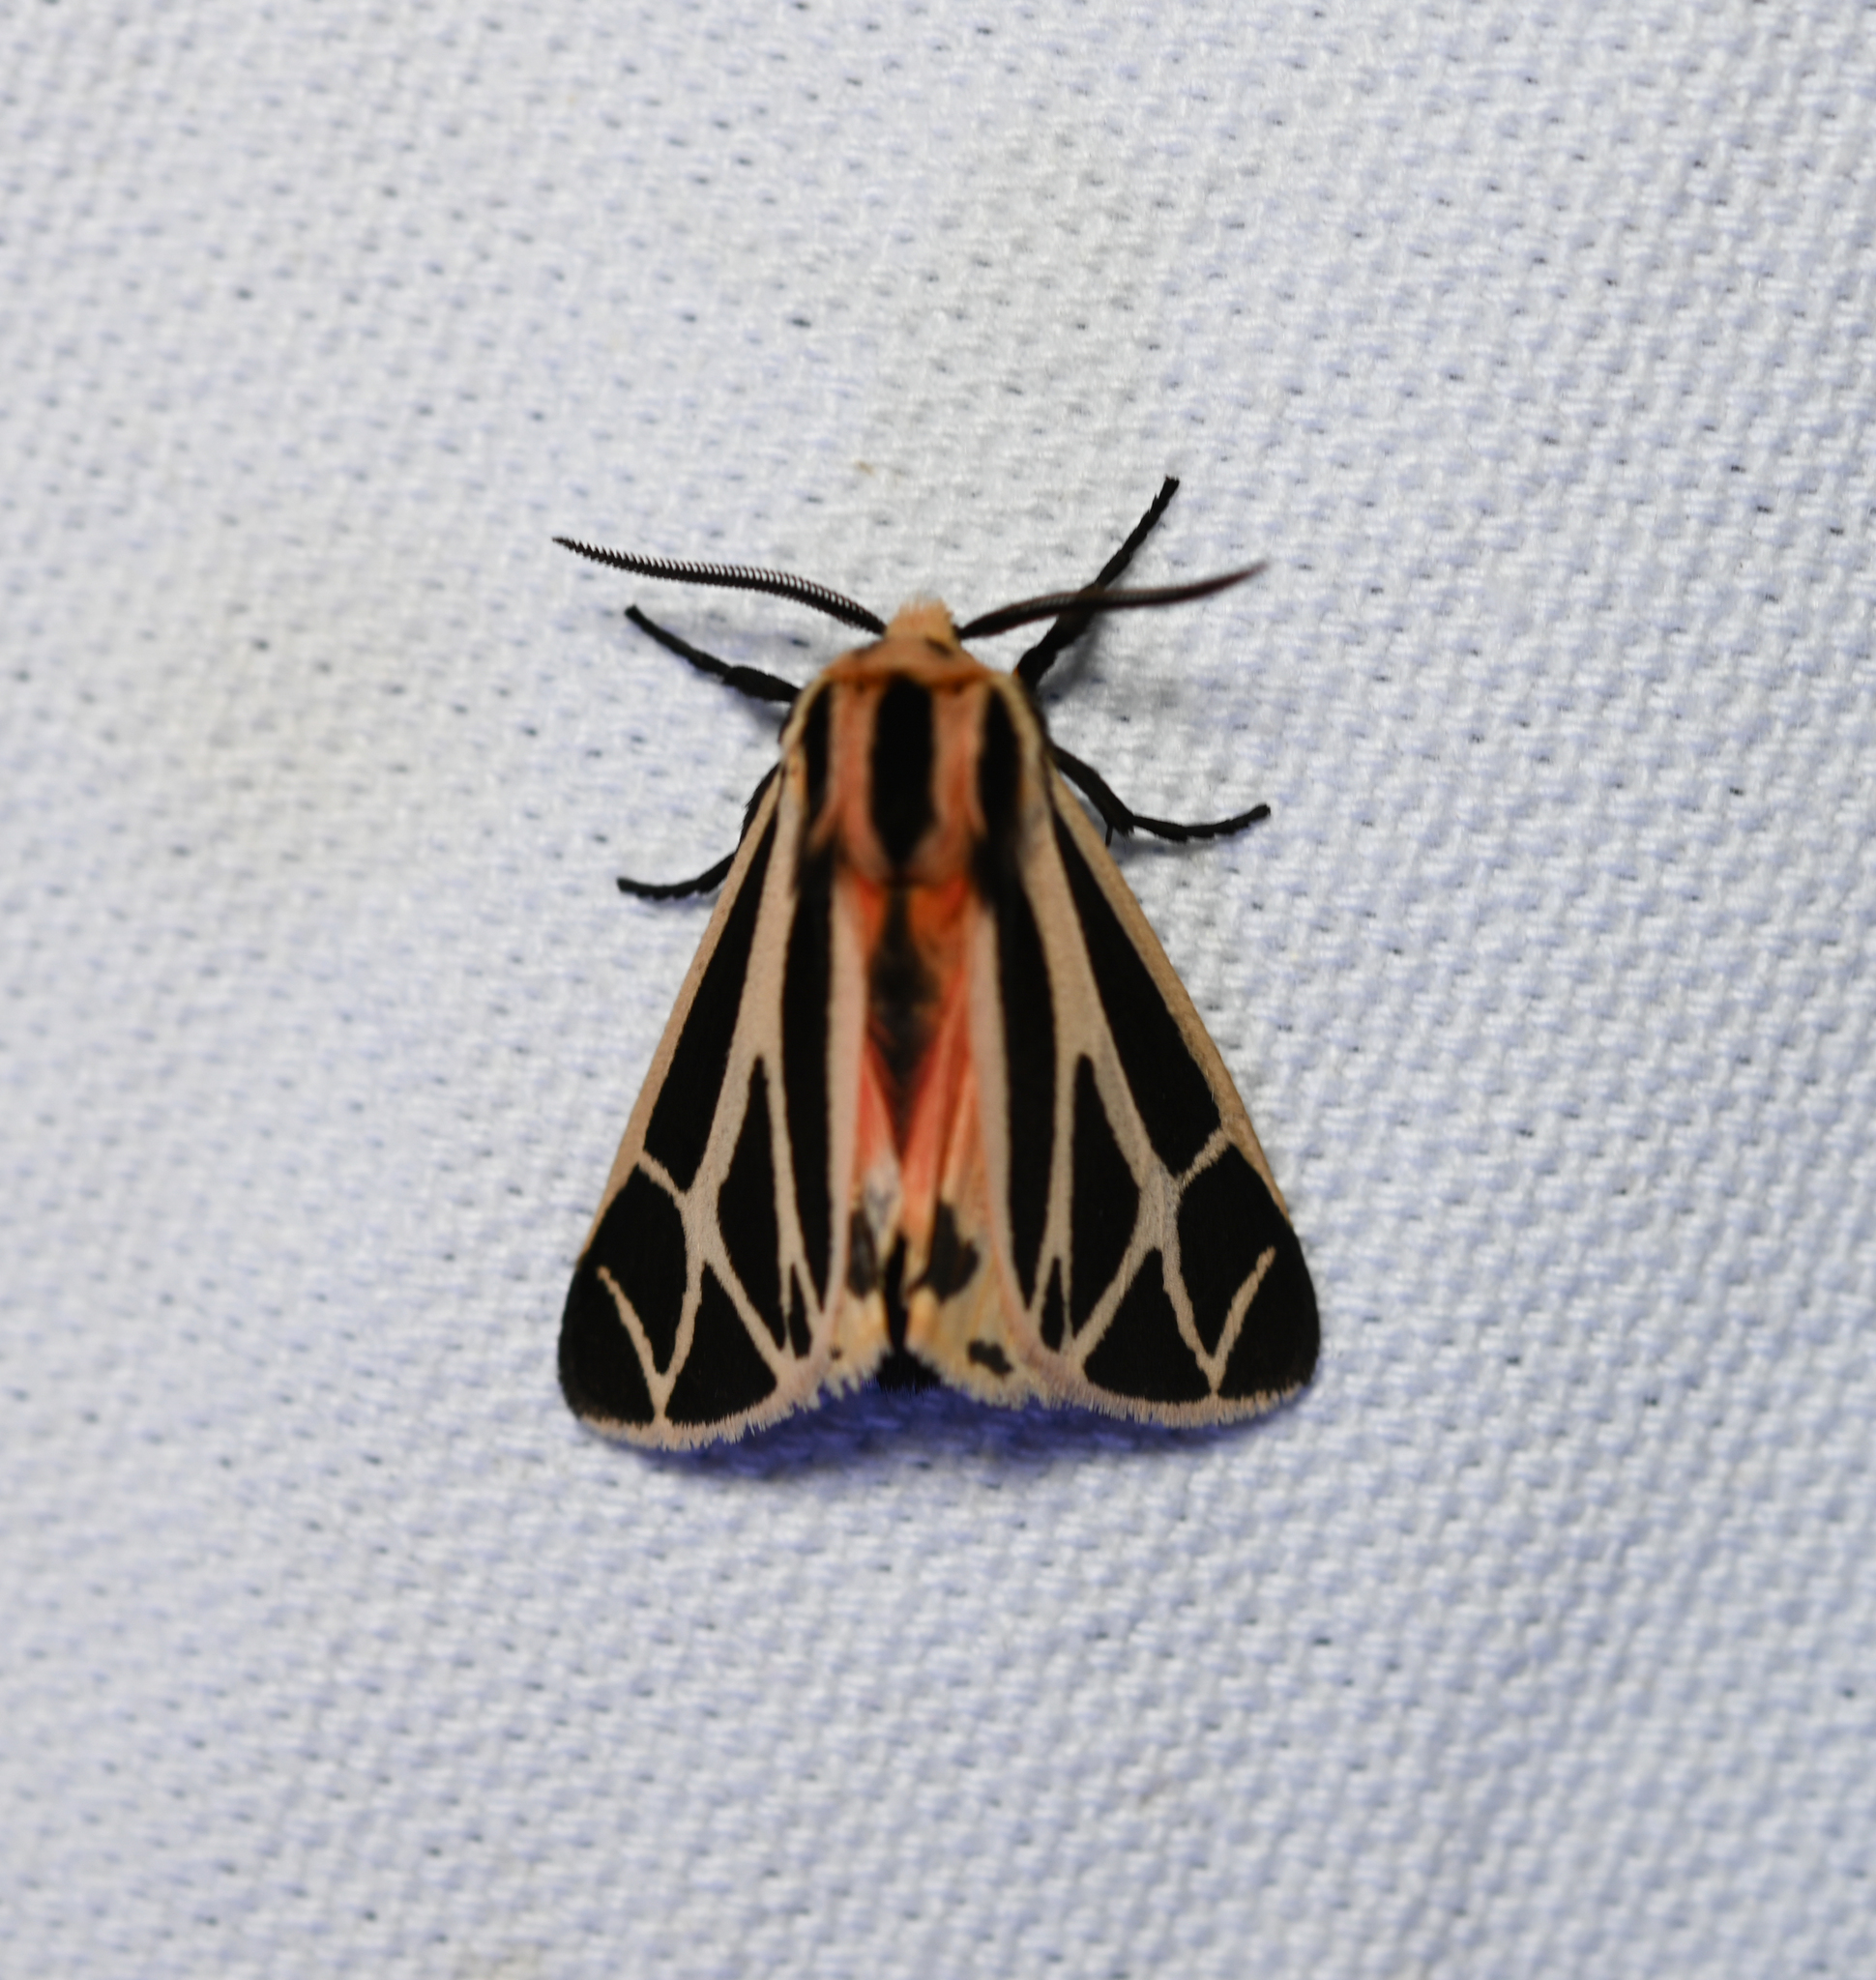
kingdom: Animalia
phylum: Arthropoda
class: Insecta
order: Lepidoptera
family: Erebidae
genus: Apantesis
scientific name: Apantesis phalerata
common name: Harnessed tiger moth
